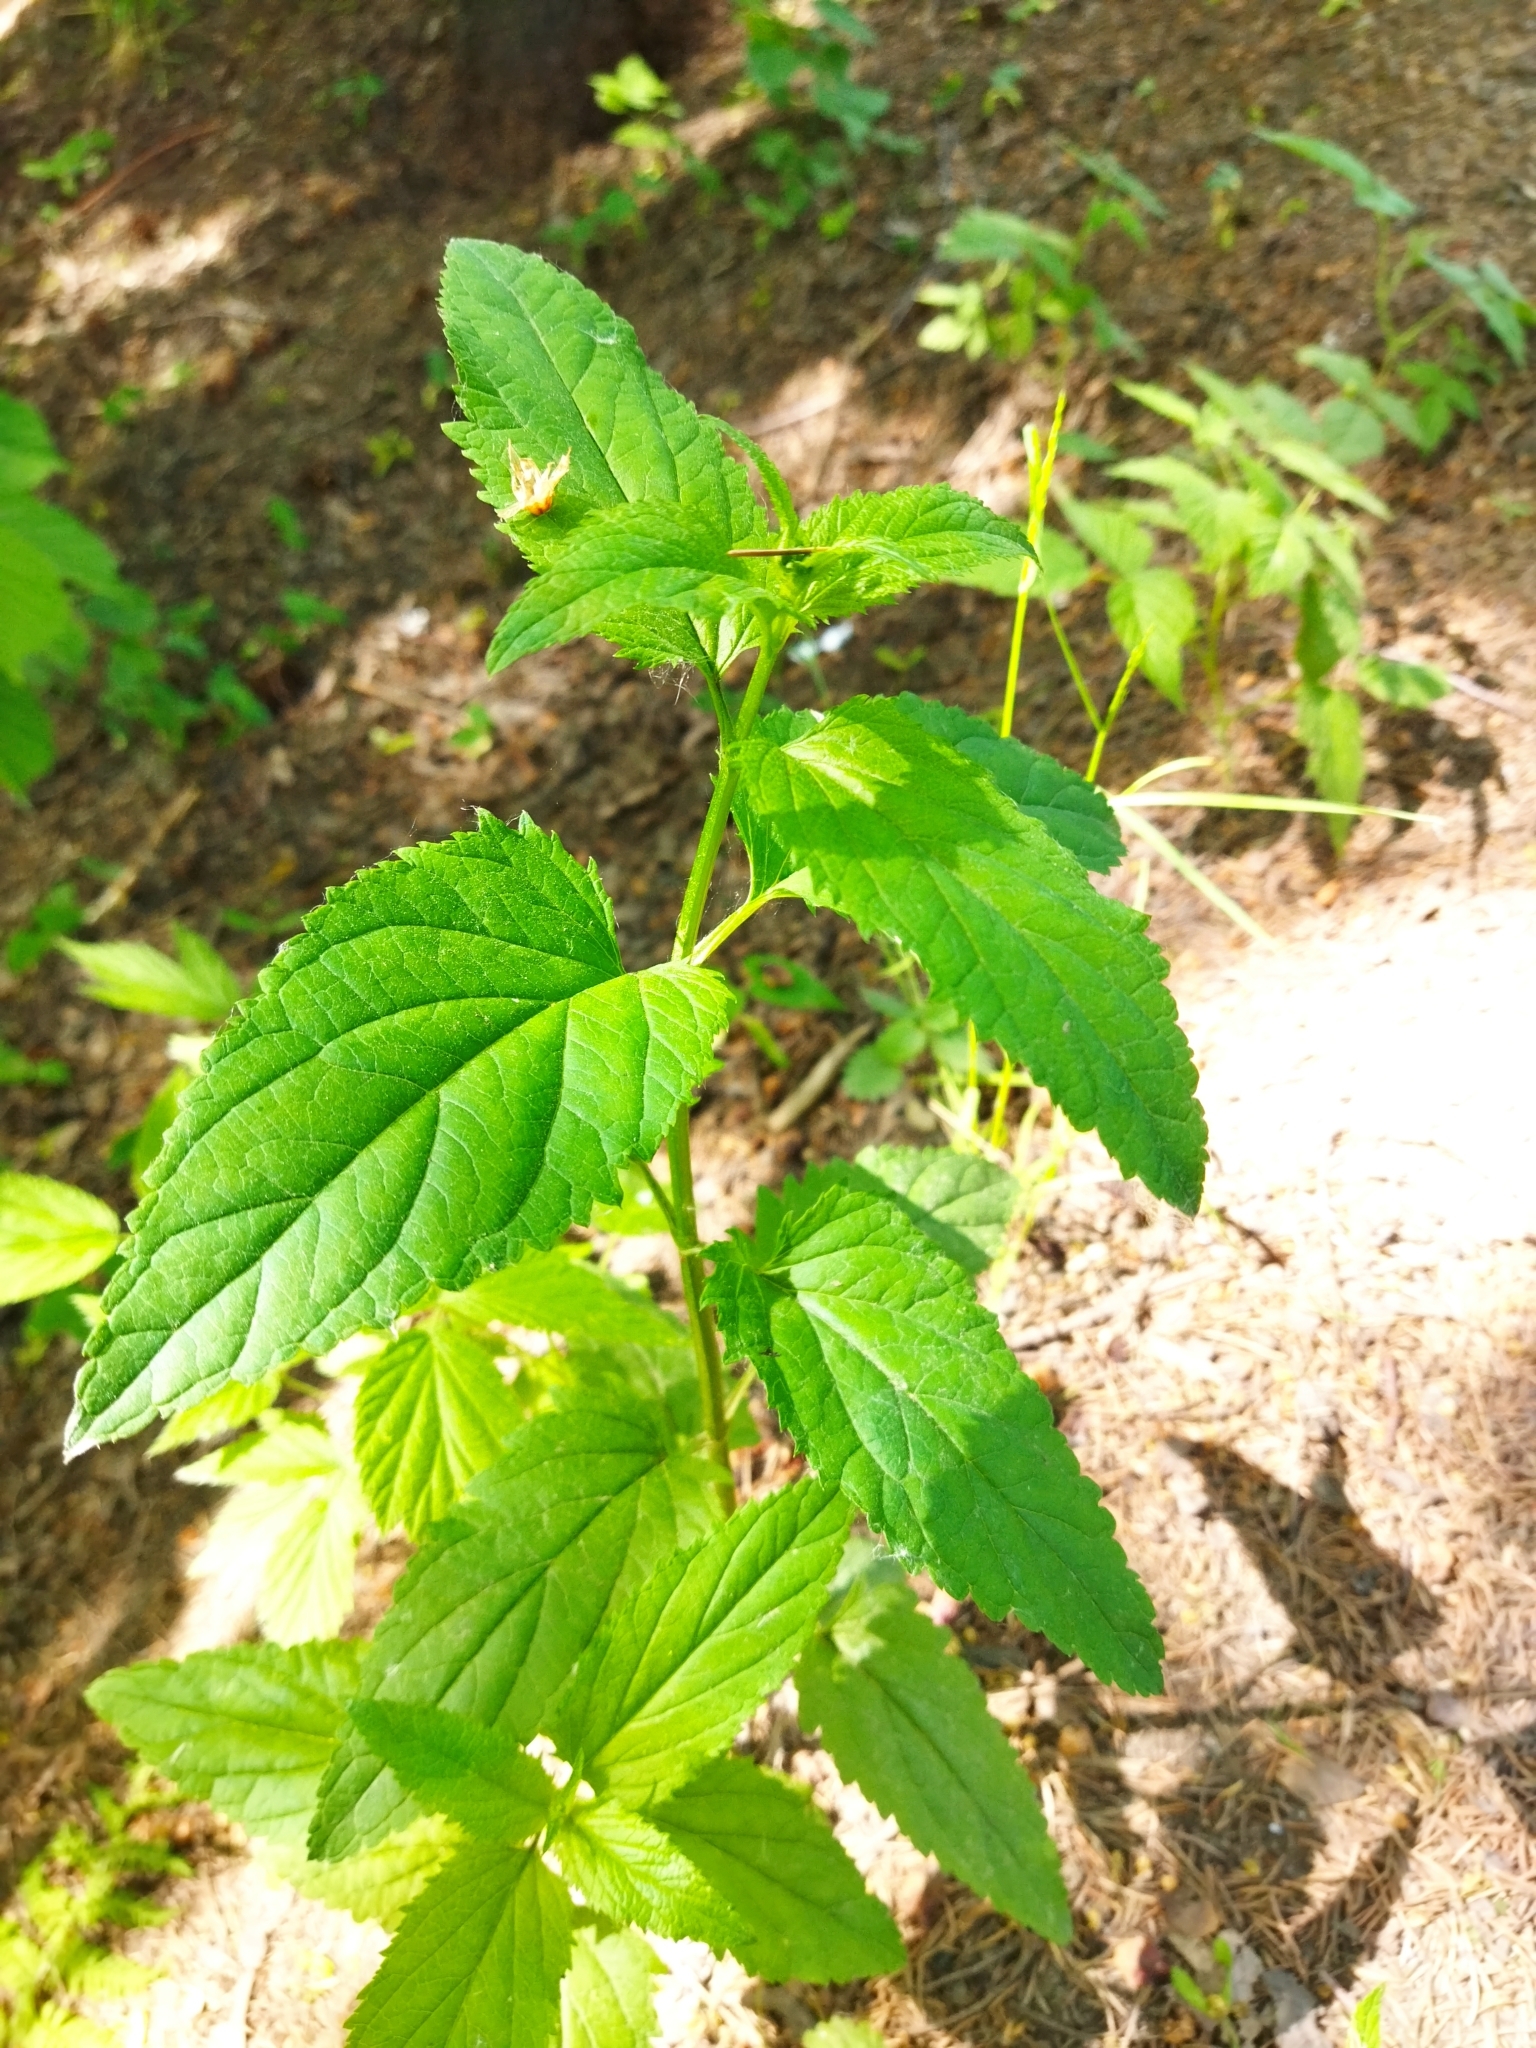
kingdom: Plantae
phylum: Tracheophyta
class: Magnoliopsida
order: Lamiales
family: Scrophulariaceae
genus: Scrophularia
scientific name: Scrophularia nodosa
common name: Common figwort
